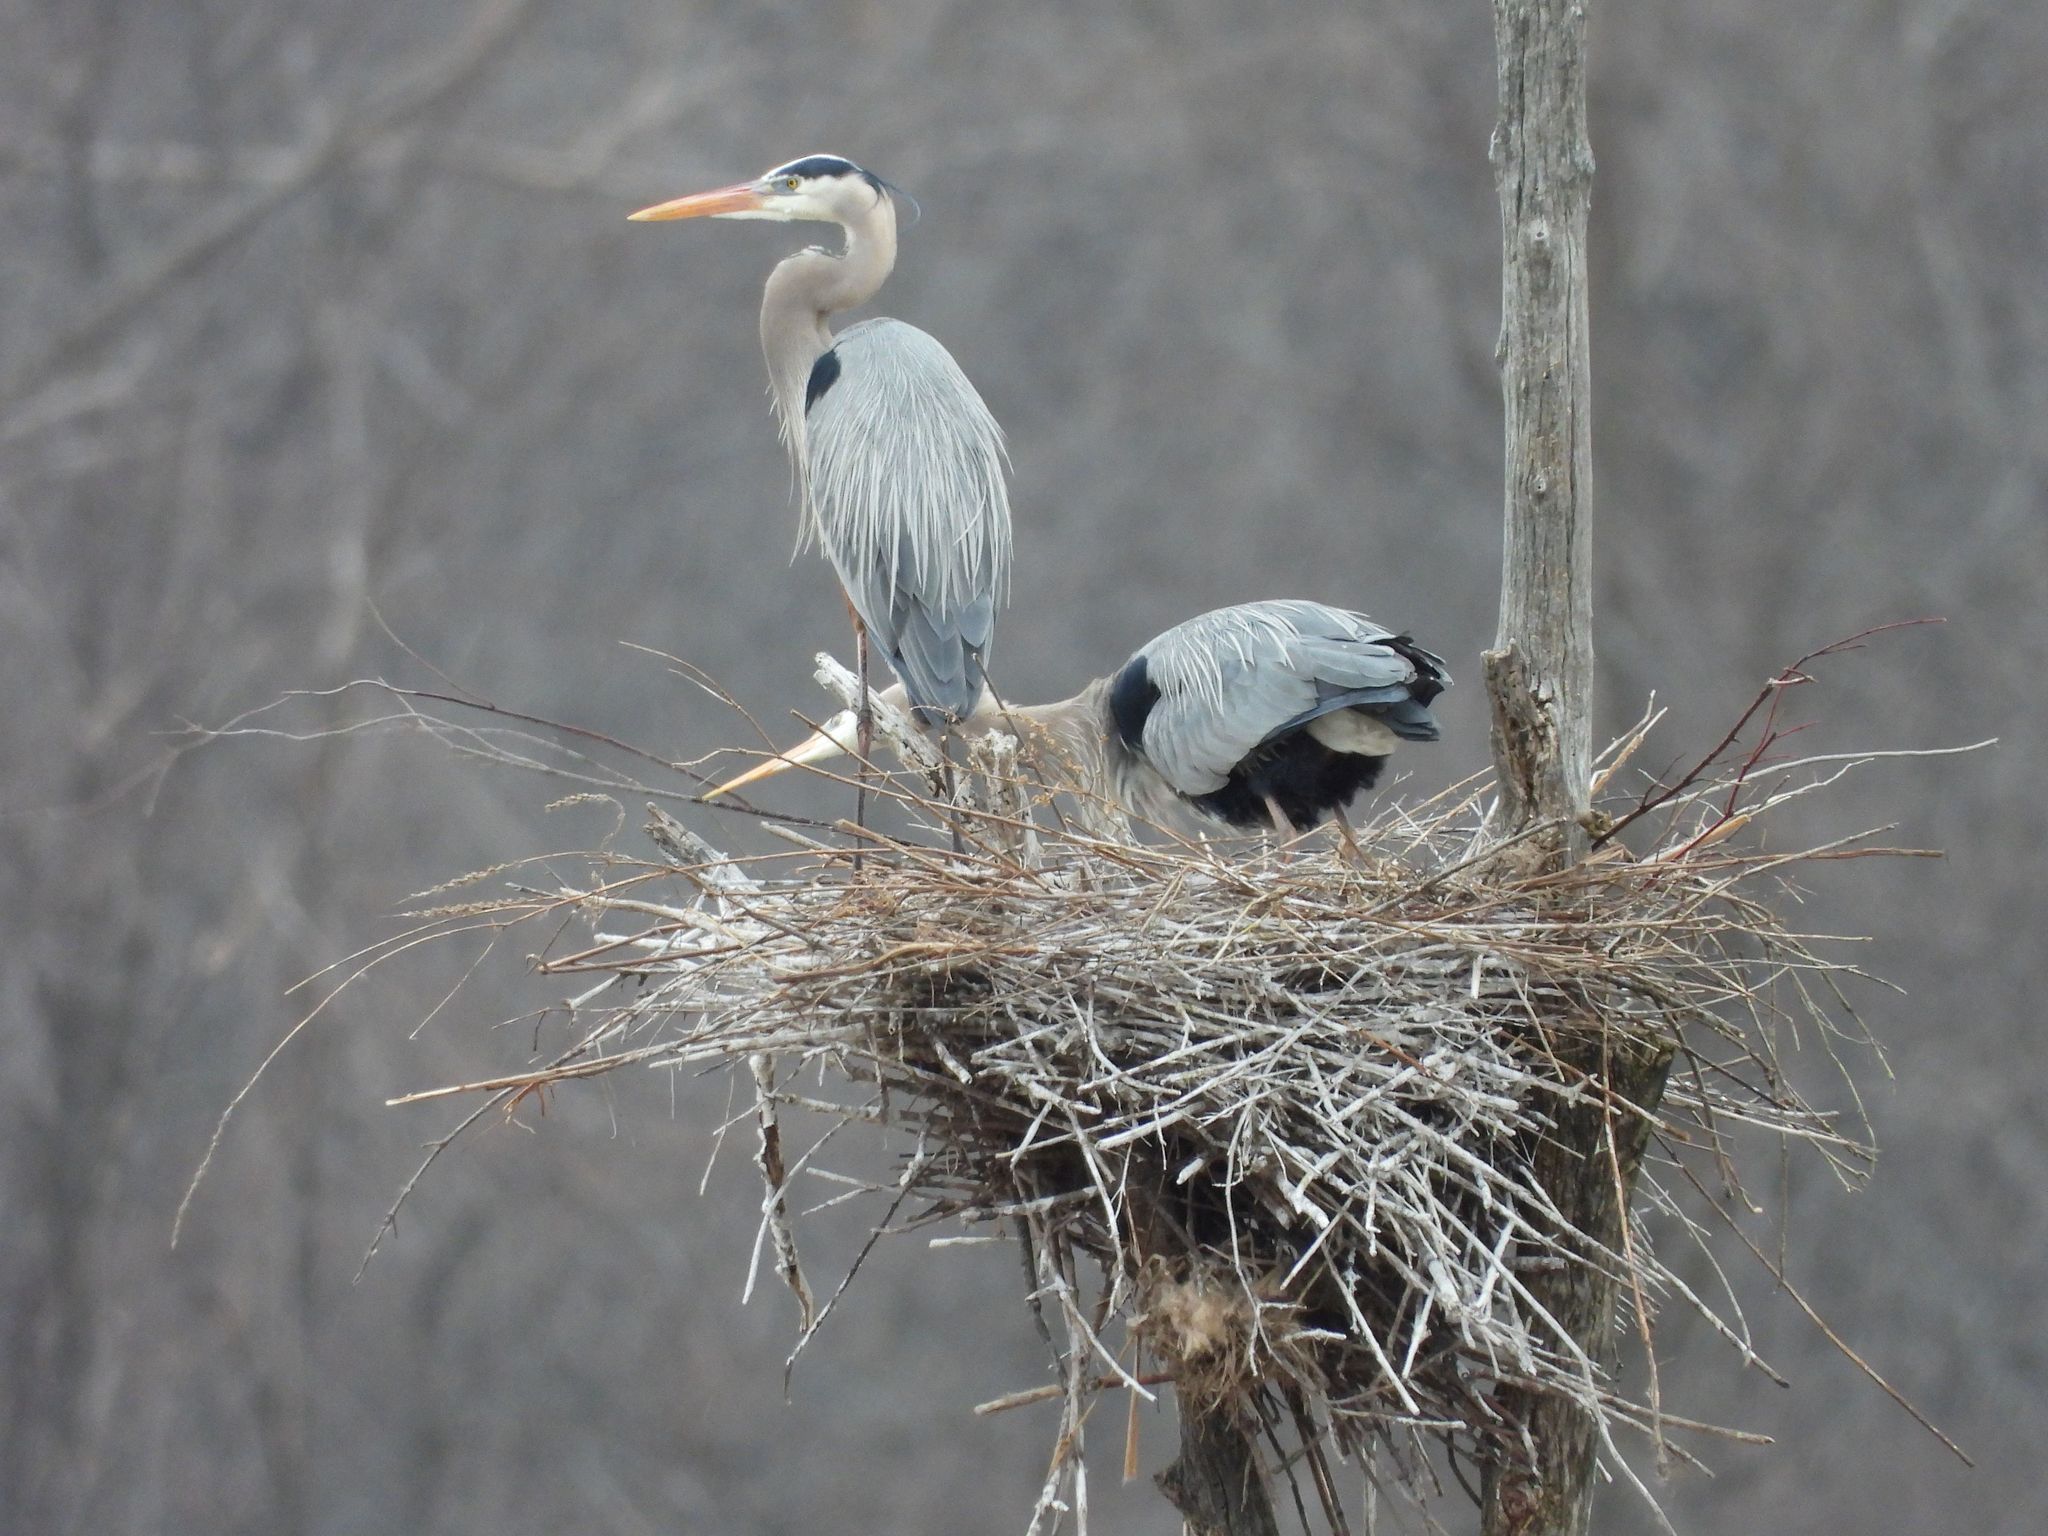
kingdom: Animalia
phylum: Chordata
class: Aves
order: Pelecaniformes
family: Ardeidae
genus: Ardea
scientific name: Ardea herodias
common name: Great blue heron
